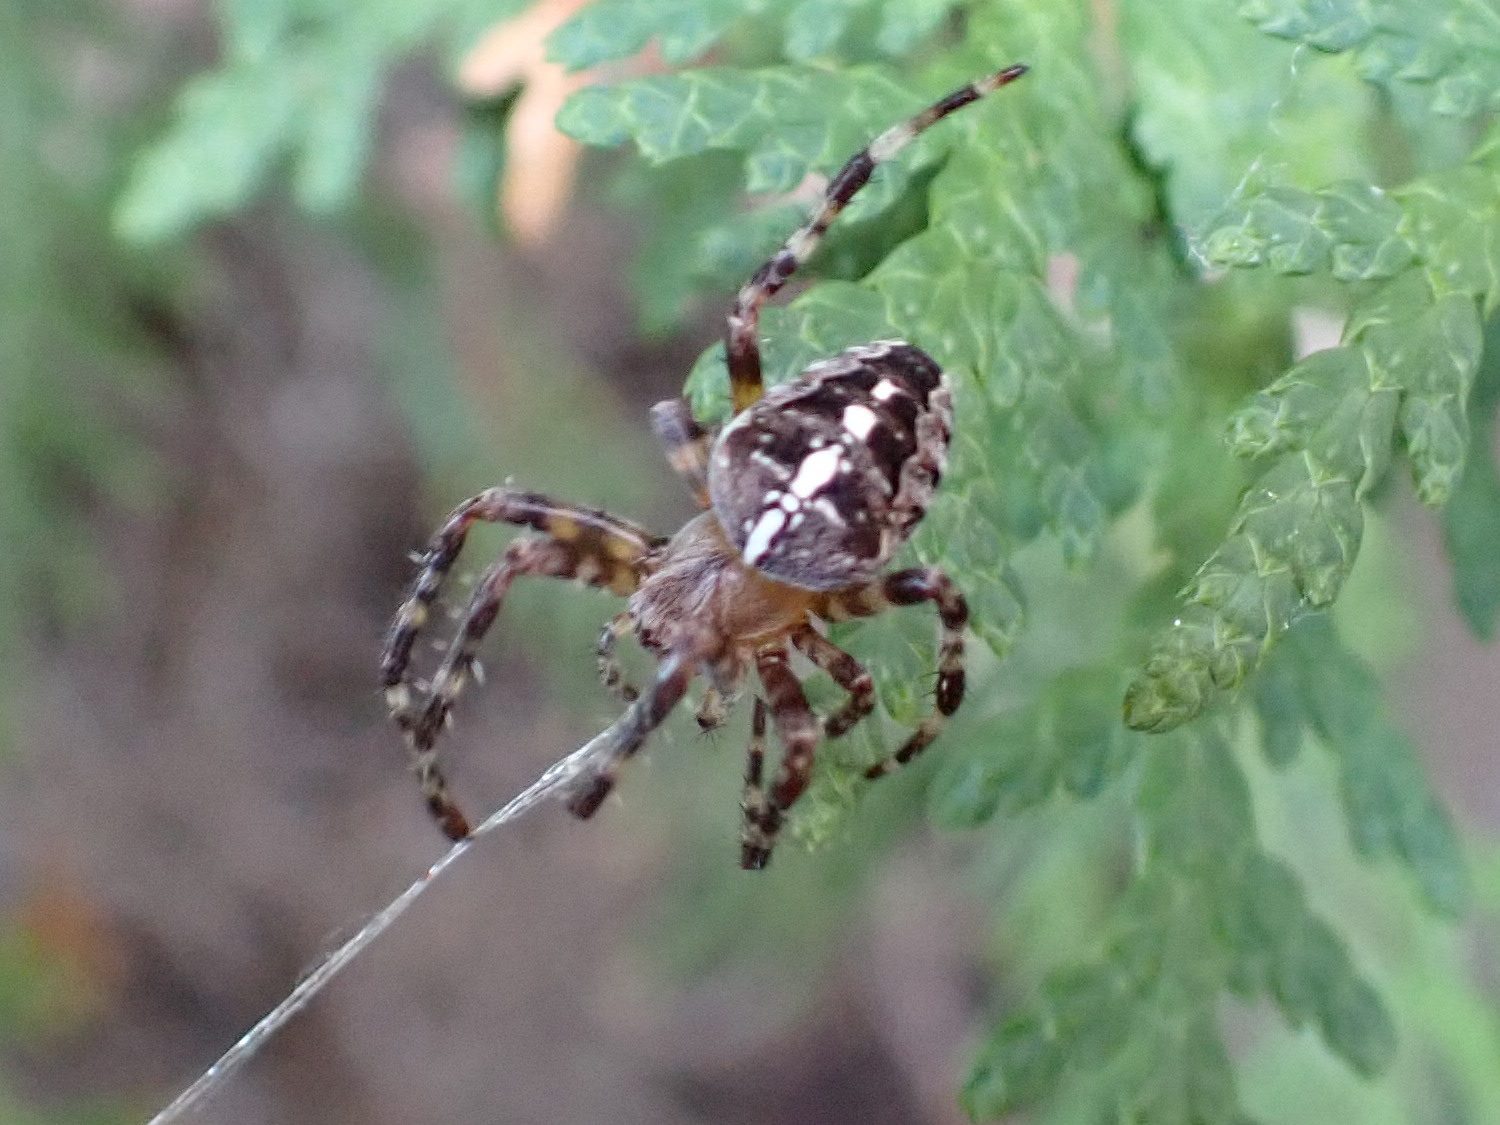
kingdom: Animalia
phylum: Arthropoda
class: Arachnida
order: Araneae
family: Araneidae
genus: Araneus
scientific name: Araneus diadematus
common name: Cross orbweaver
